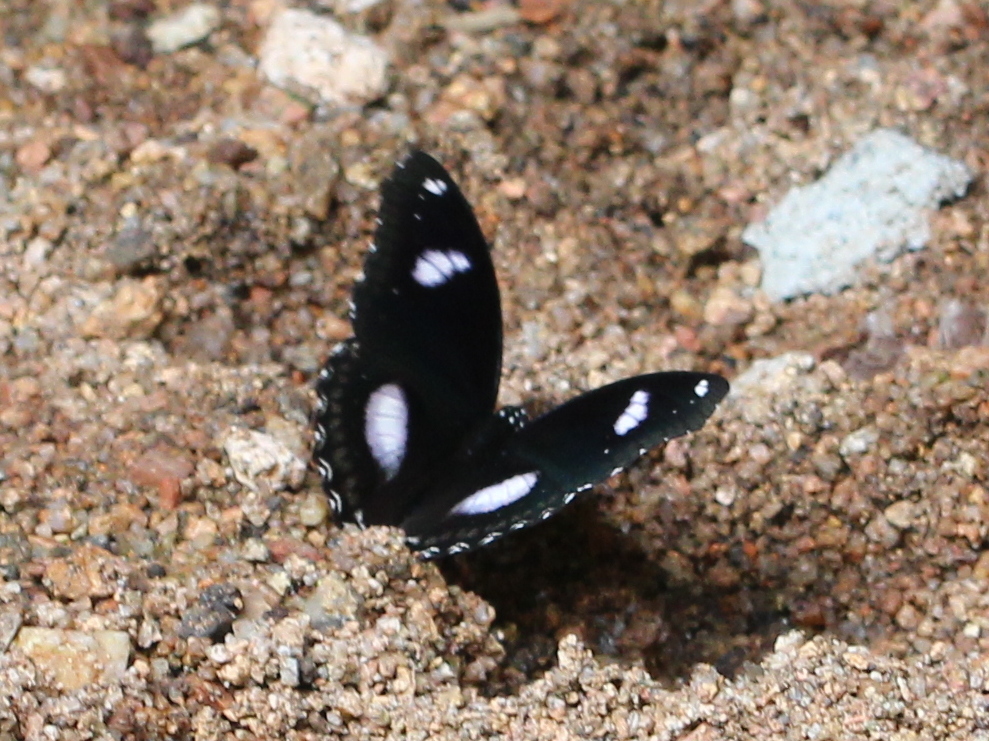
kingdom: Animalia
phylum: Arthropoda
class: Insecta
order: Lepidoptera
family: Nymphalidae
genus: Hypolimnas
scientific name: Hypolimnas bolina
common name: Great eggfly
